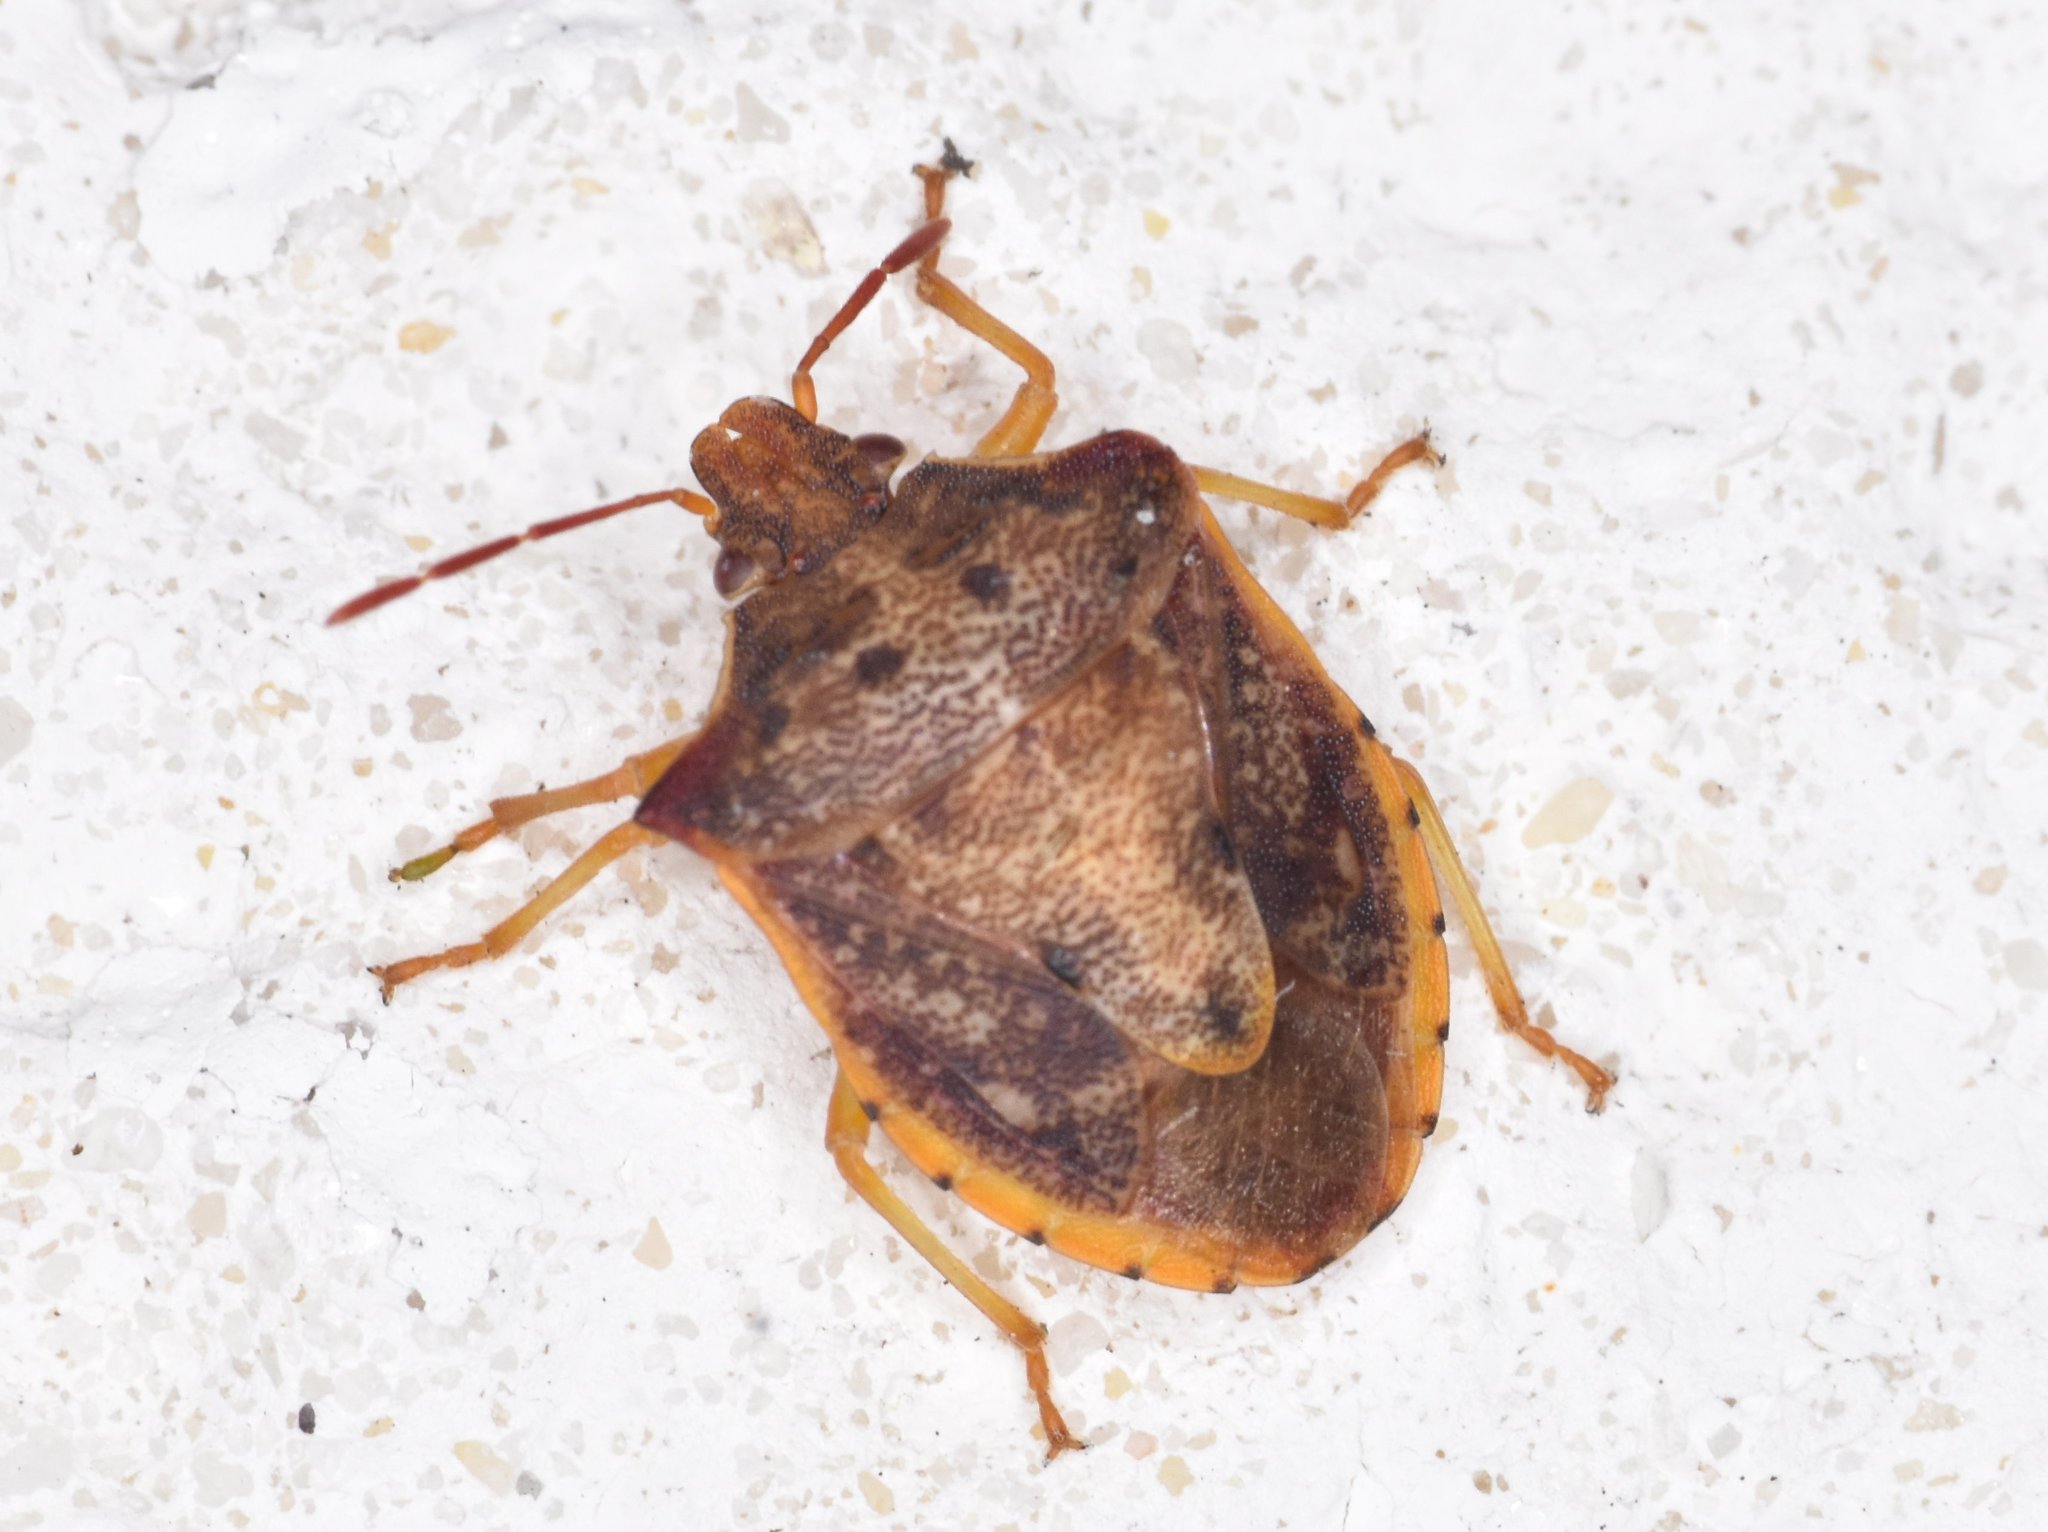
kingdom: Animalia
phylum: Arthropoda
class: Insecta
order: Hemiptera
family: Pentatomidae
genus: Dendrocoris
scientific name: Dendrocoris humeralis
